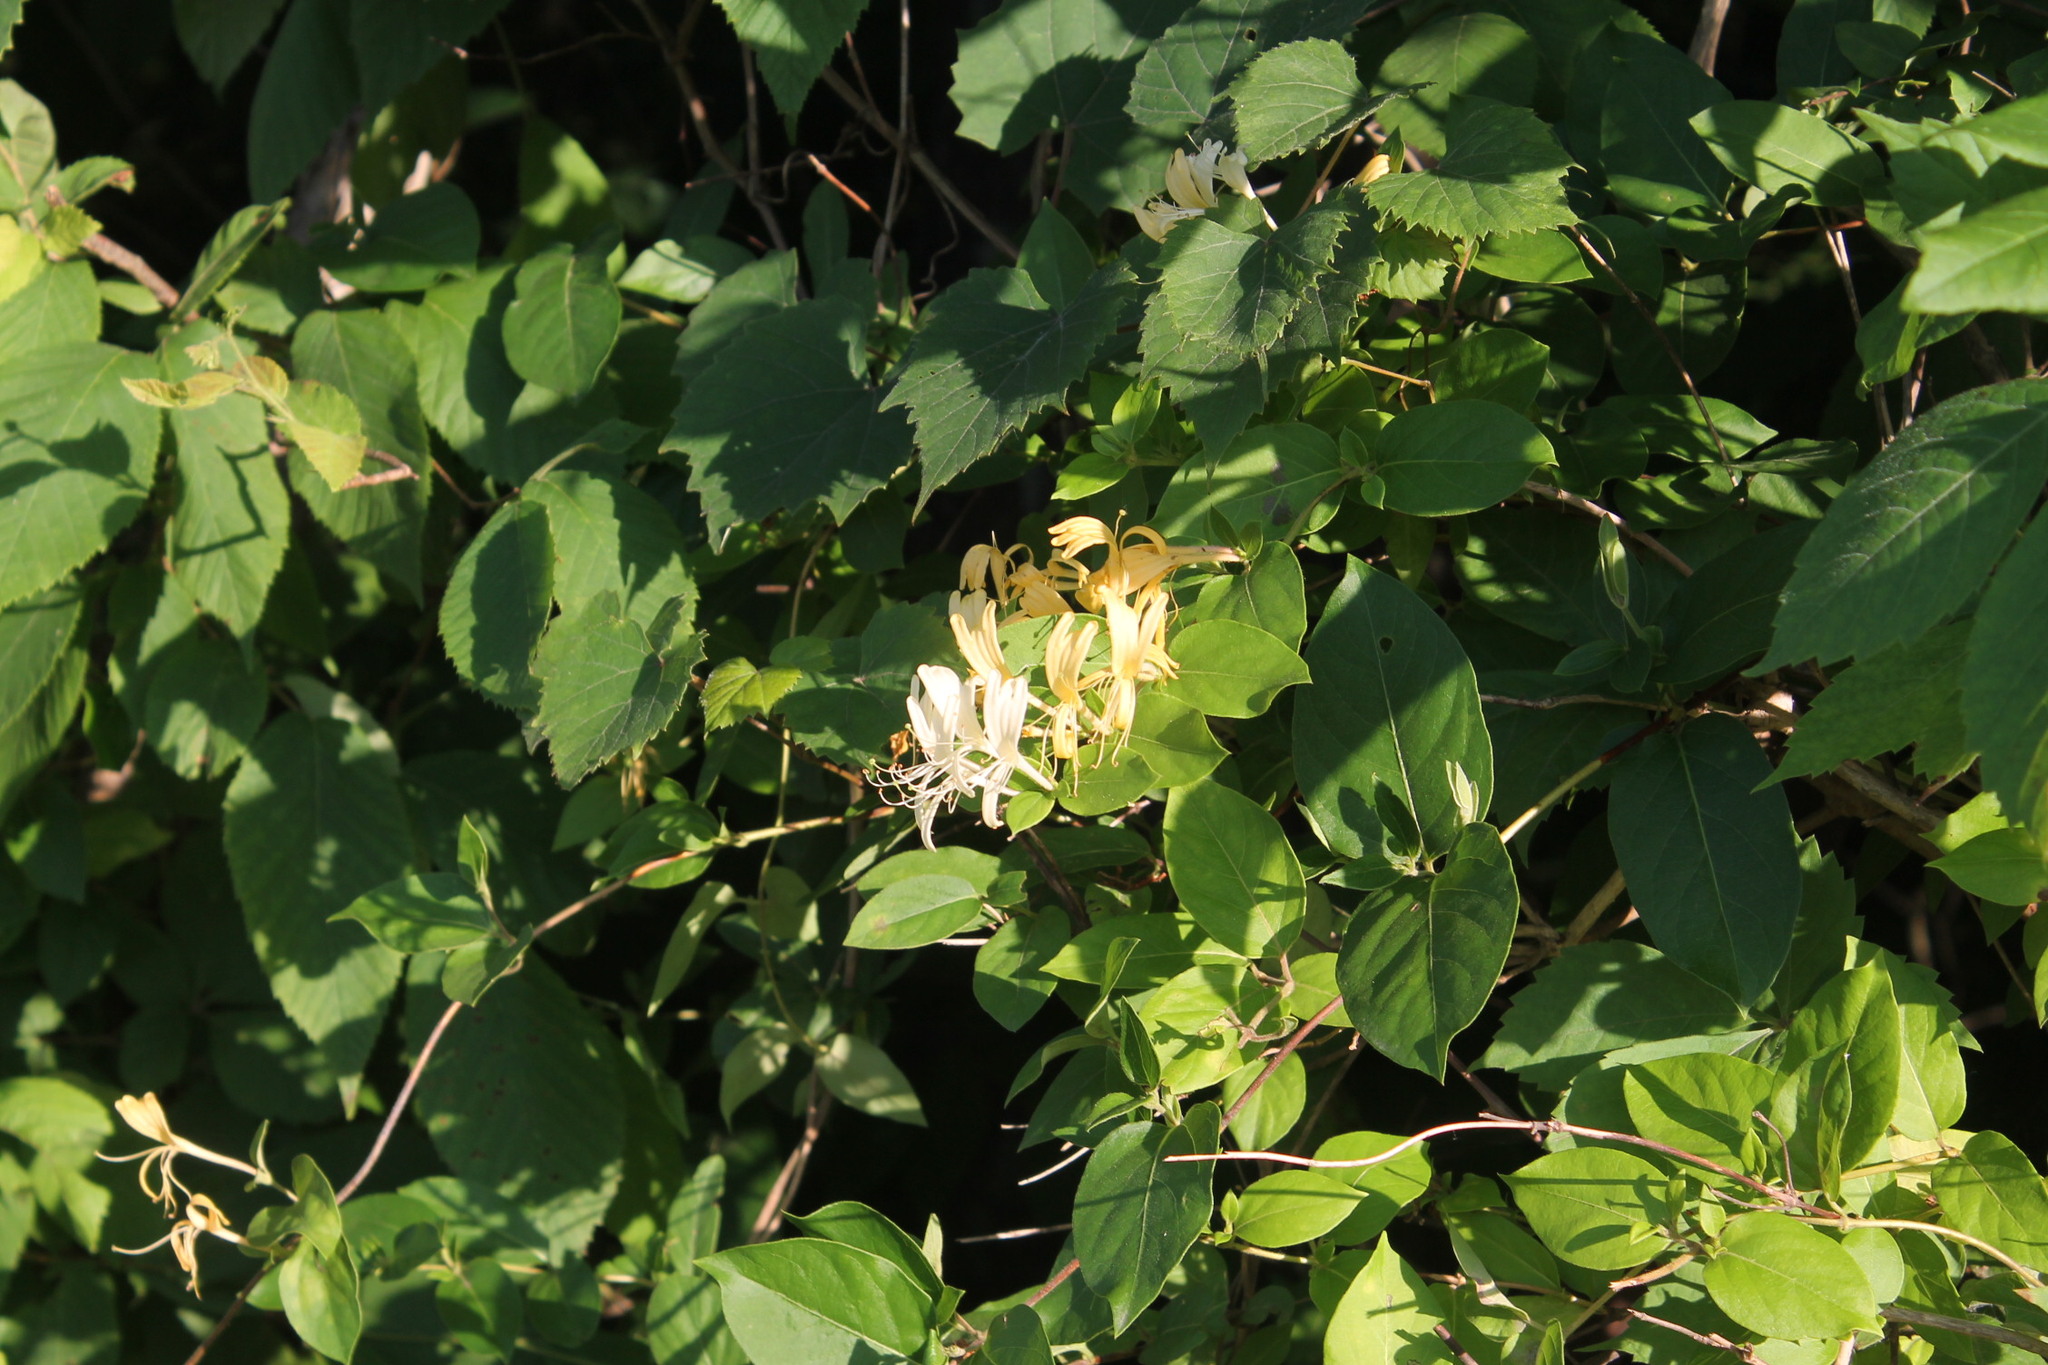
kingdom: Plantae
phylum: Tracheophyta
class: Magnoliopsida
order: Dipsacales
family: Caprifoliaceae
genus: Lonicera
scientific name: Lonicera japonica
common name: Japanese honeysuckle
